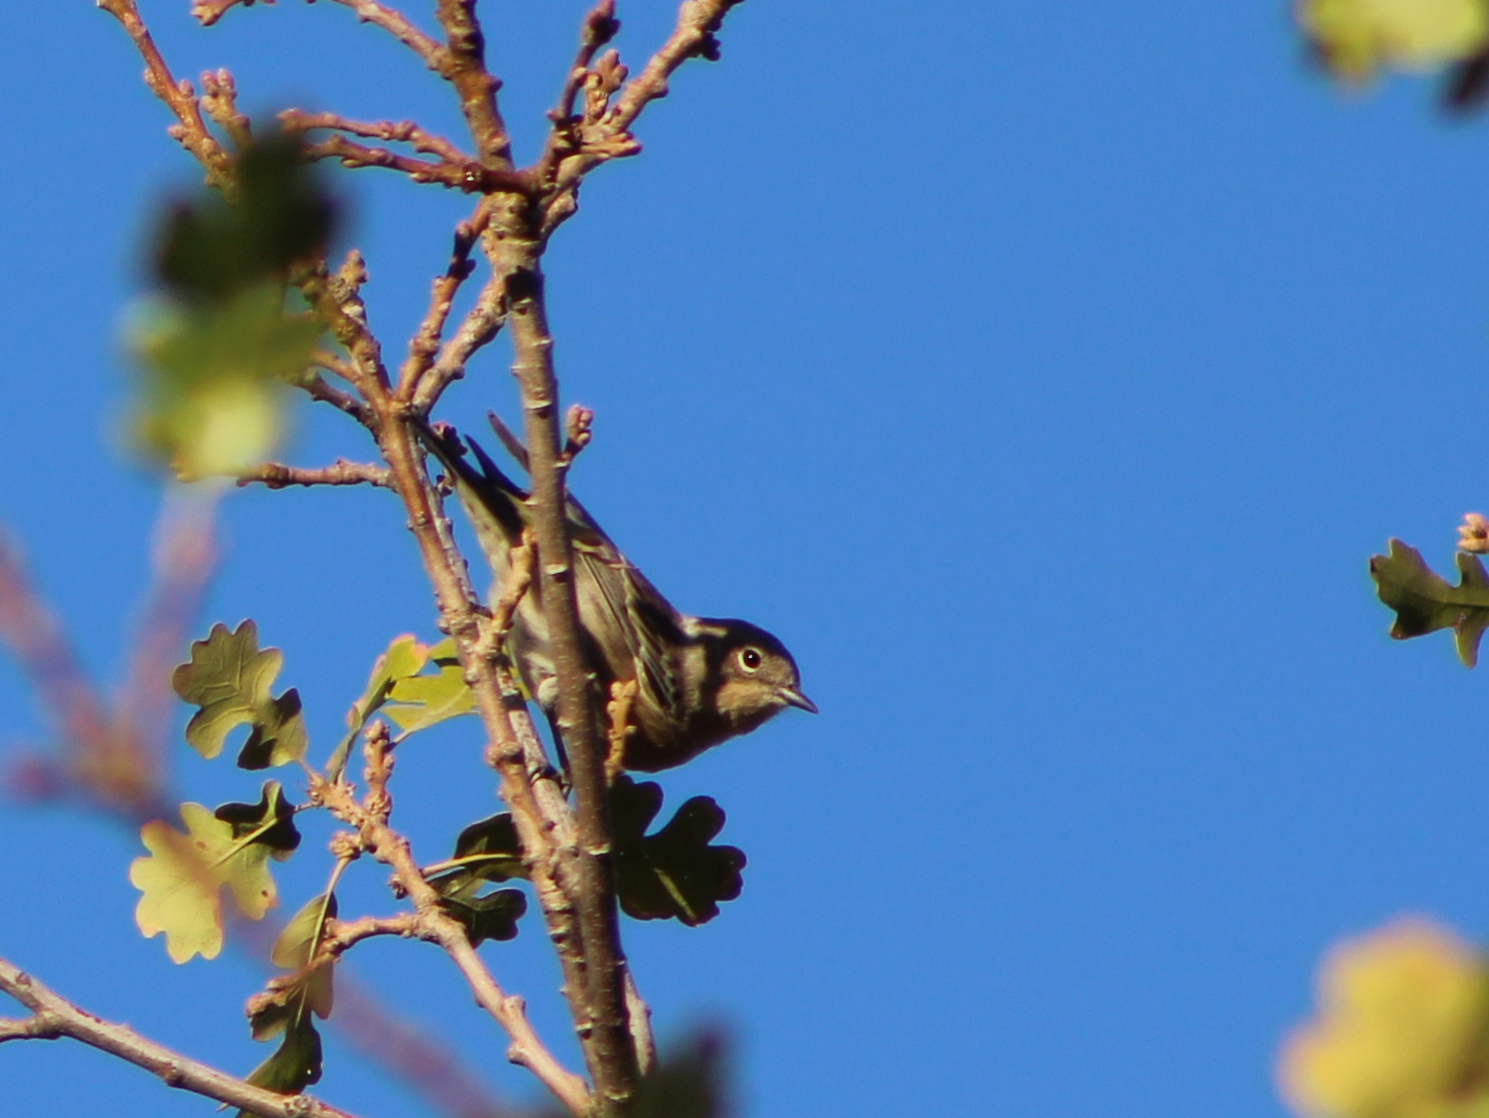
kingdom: Animalia
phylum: Chordata
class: Aves
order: Passeriformes
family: Parulidae
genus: Setophaga
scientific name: Setophaga auduboni
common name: Audubon's warbler
